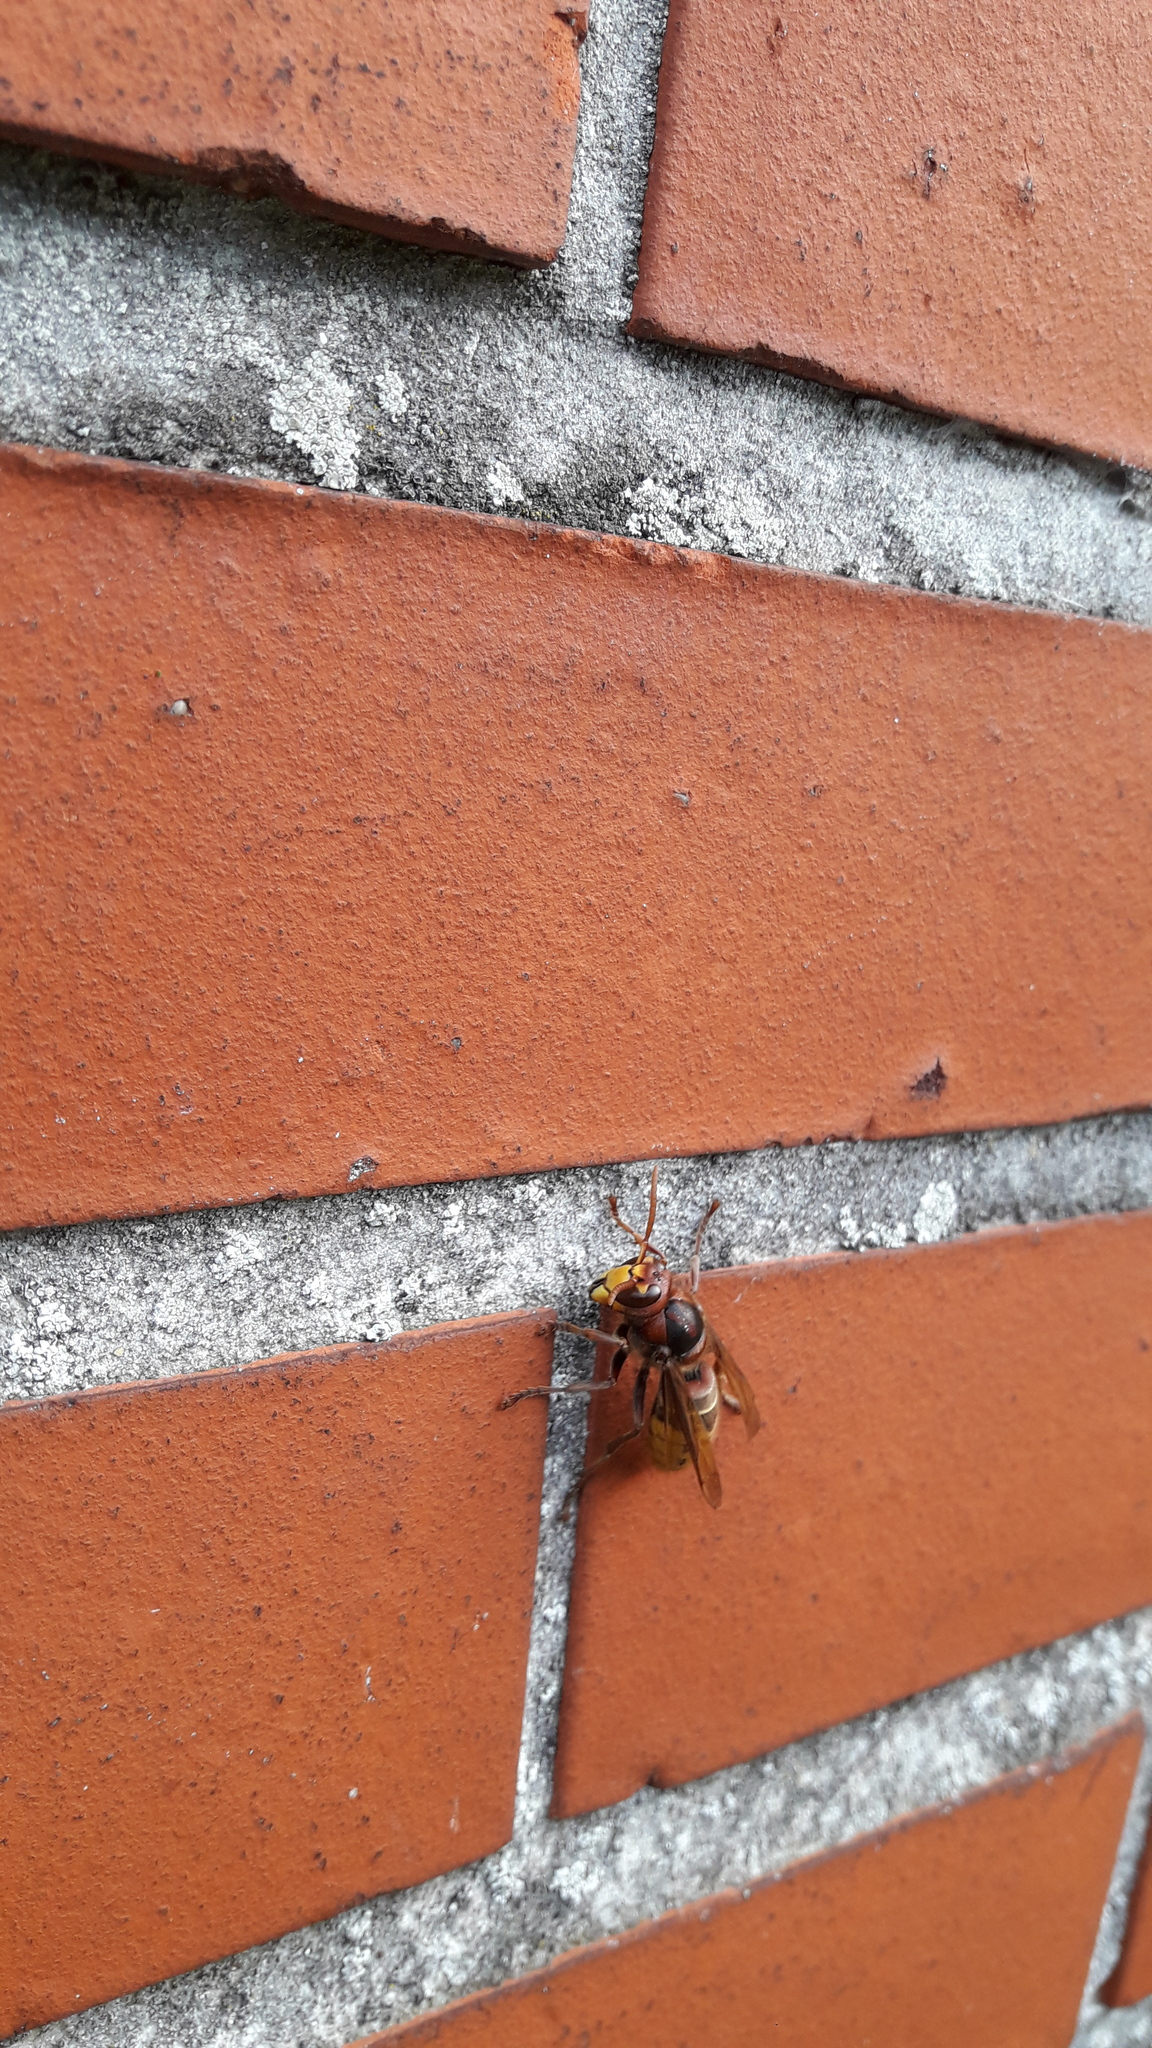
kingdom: Animalia
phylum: Arthropoda
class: Insecta
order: Hymenoptera
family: Vespidae
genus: Vespa
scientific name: Vespa crabro
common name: Hornet
